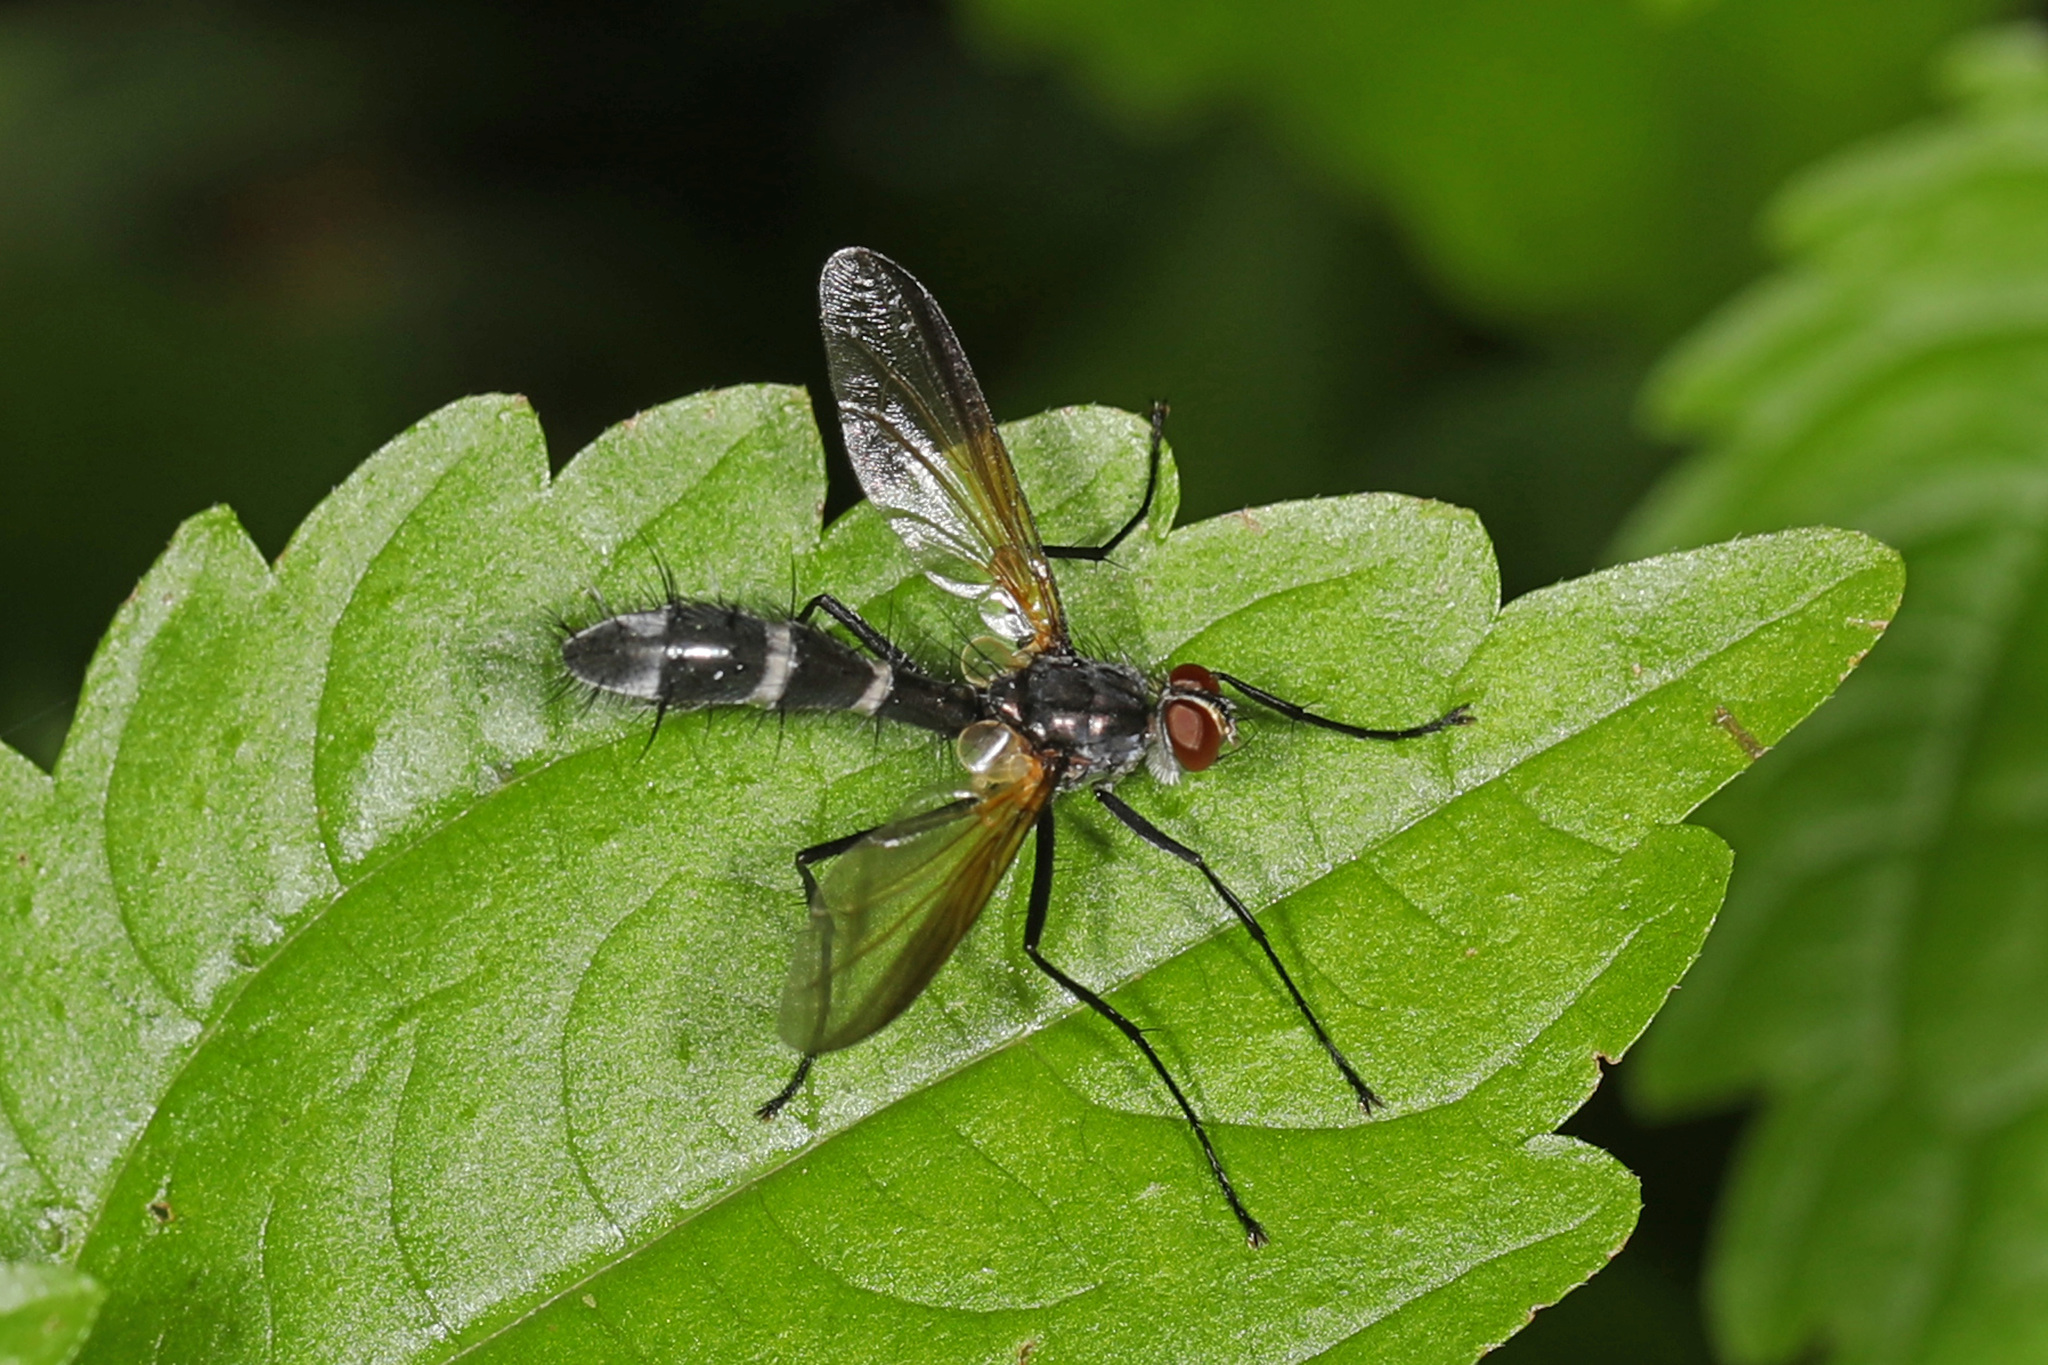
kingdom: Animalia
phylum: Arthropoda
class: Insecta
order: Diptera
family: Tachinidae
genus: Cordyligaster
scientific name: Cordyligaster septentrionalis
